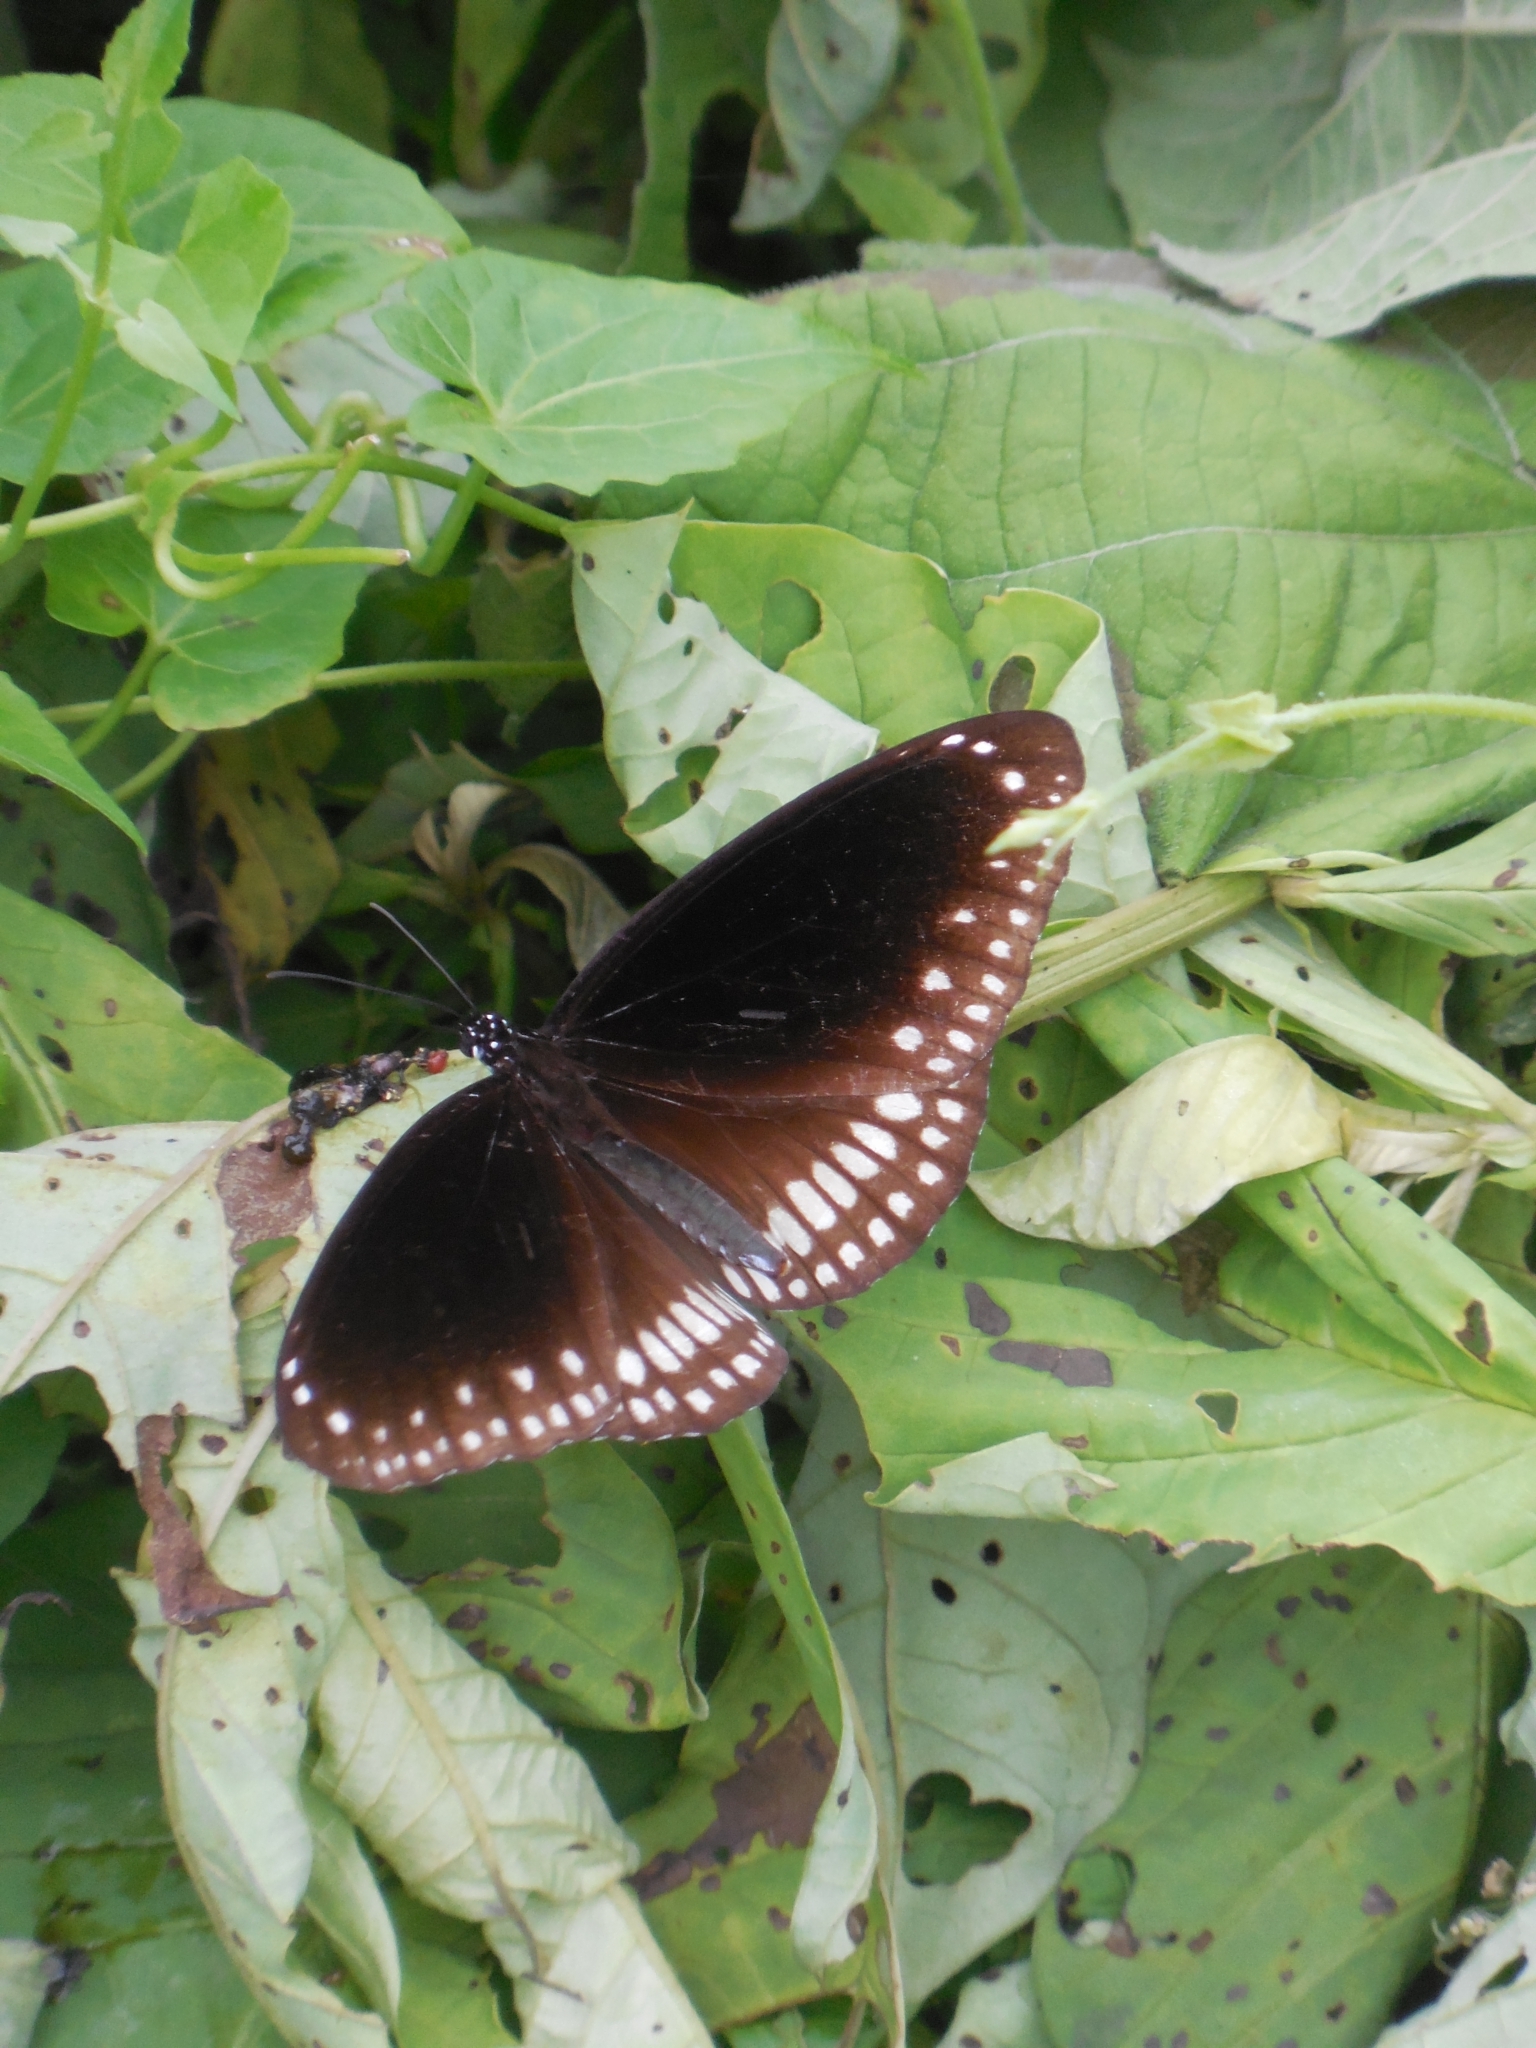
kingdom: Animalia
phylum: Arthropoda
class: Insecta
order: Lepidoptera
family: Nymphalidae
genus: Euploea
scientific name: Euploea core
